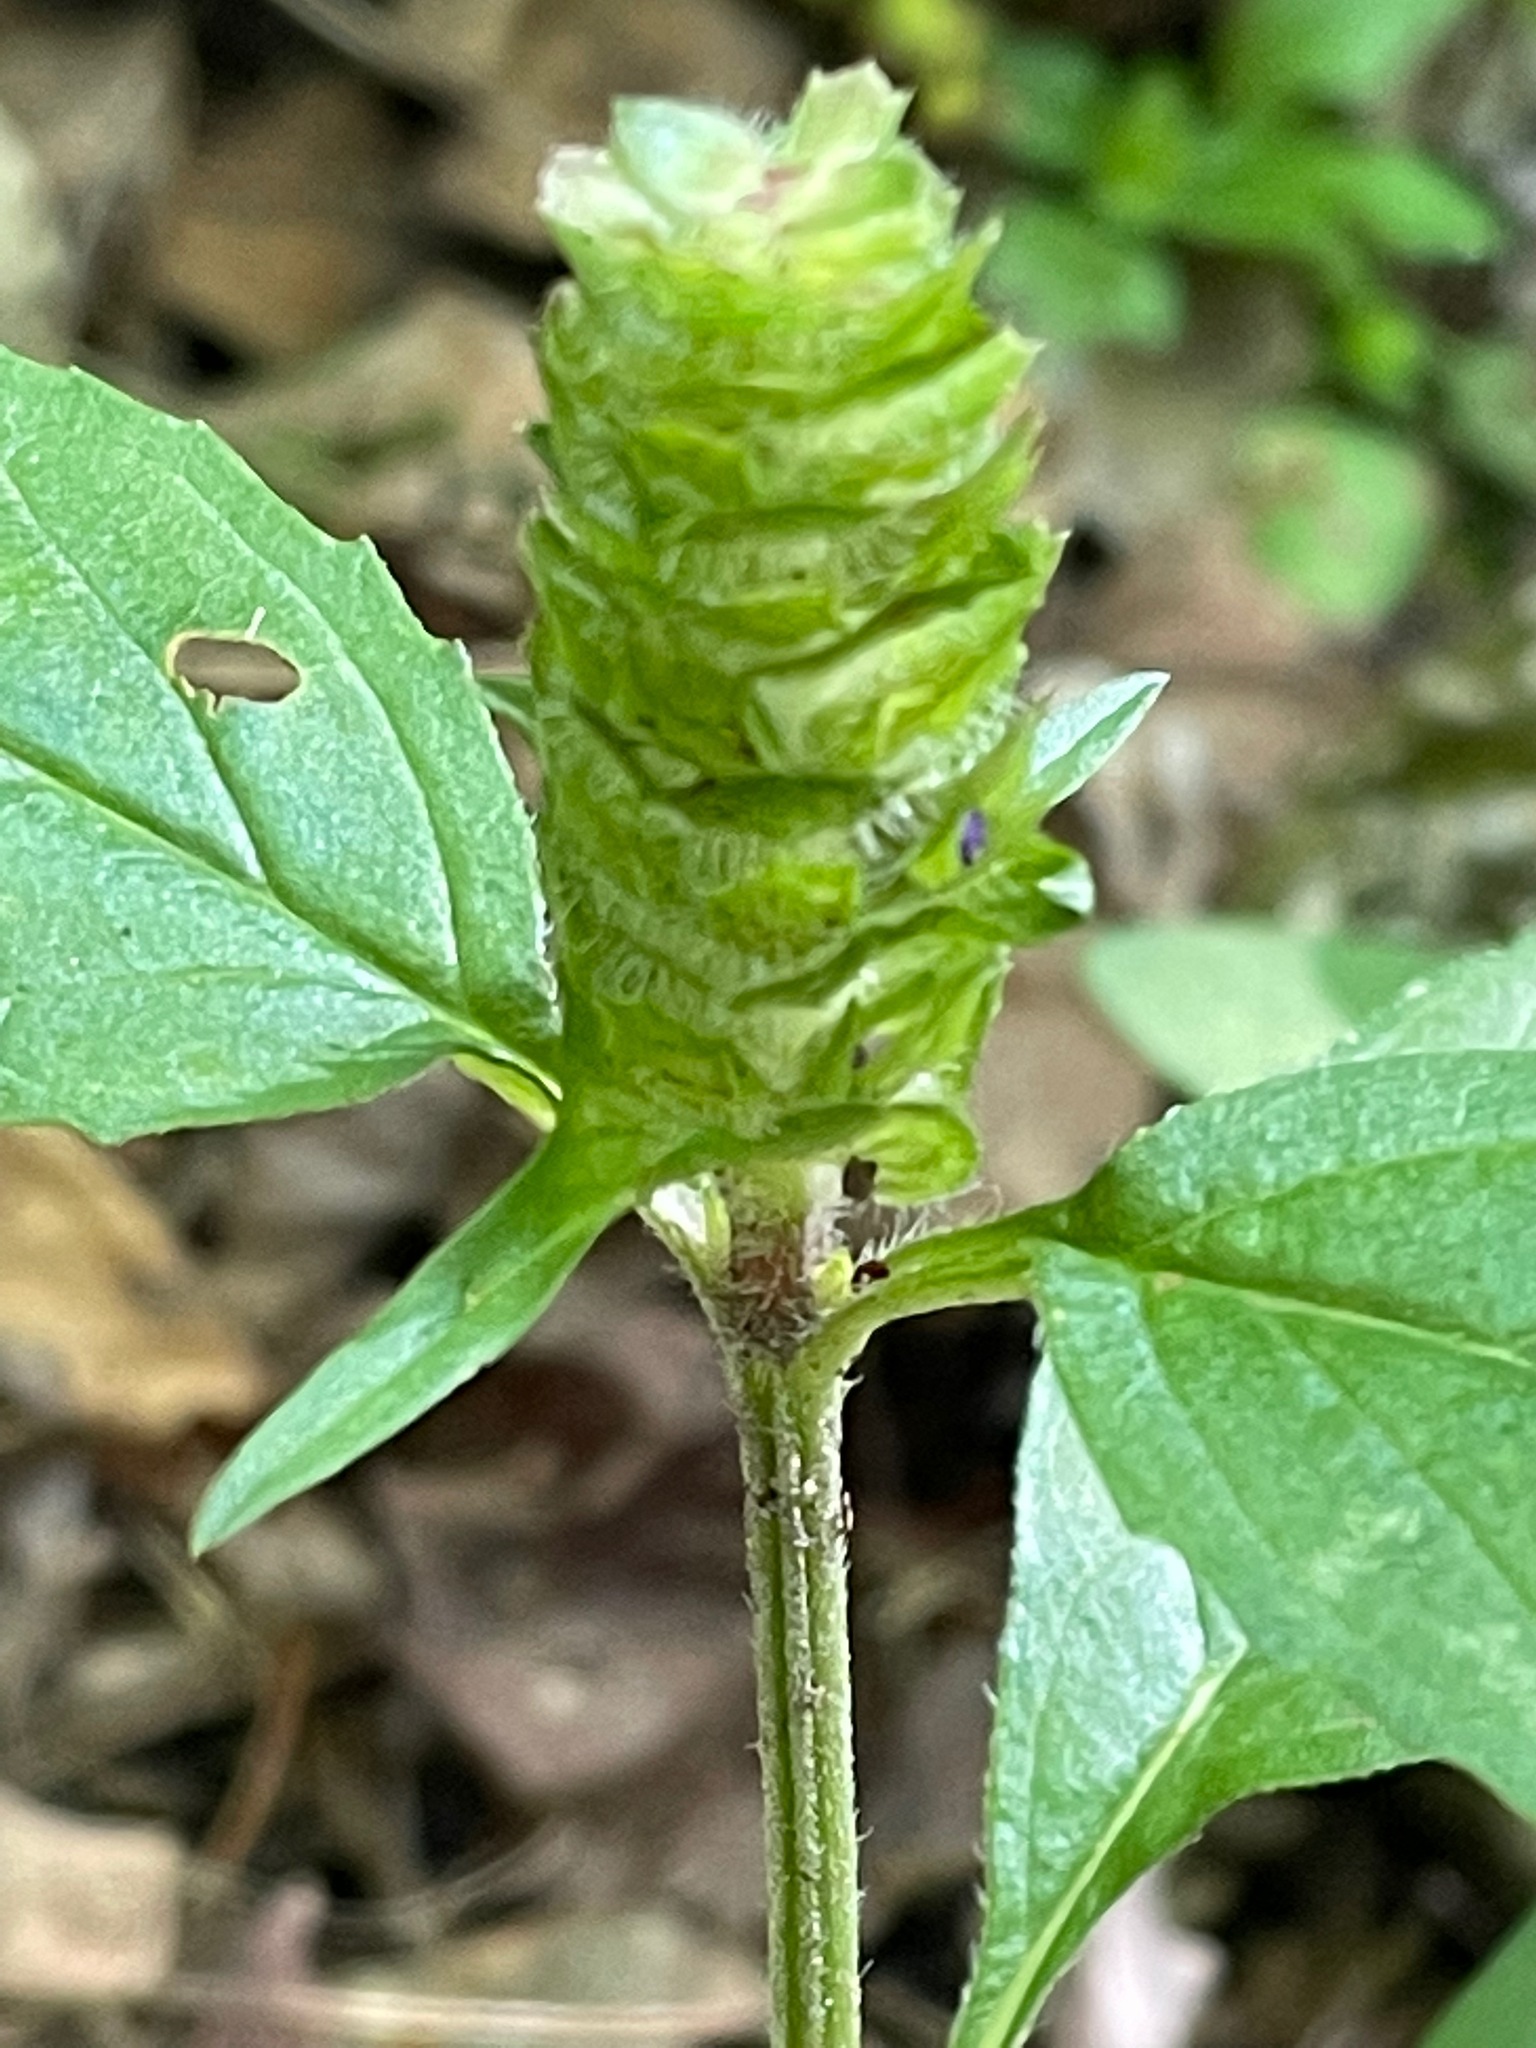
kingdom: Plantae
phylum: Tracheophyta
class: Magnoliopsida
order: Lamiales
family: Lamiaceae
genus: Prunella
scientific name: Prunella vulgaris
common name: Heal-all
